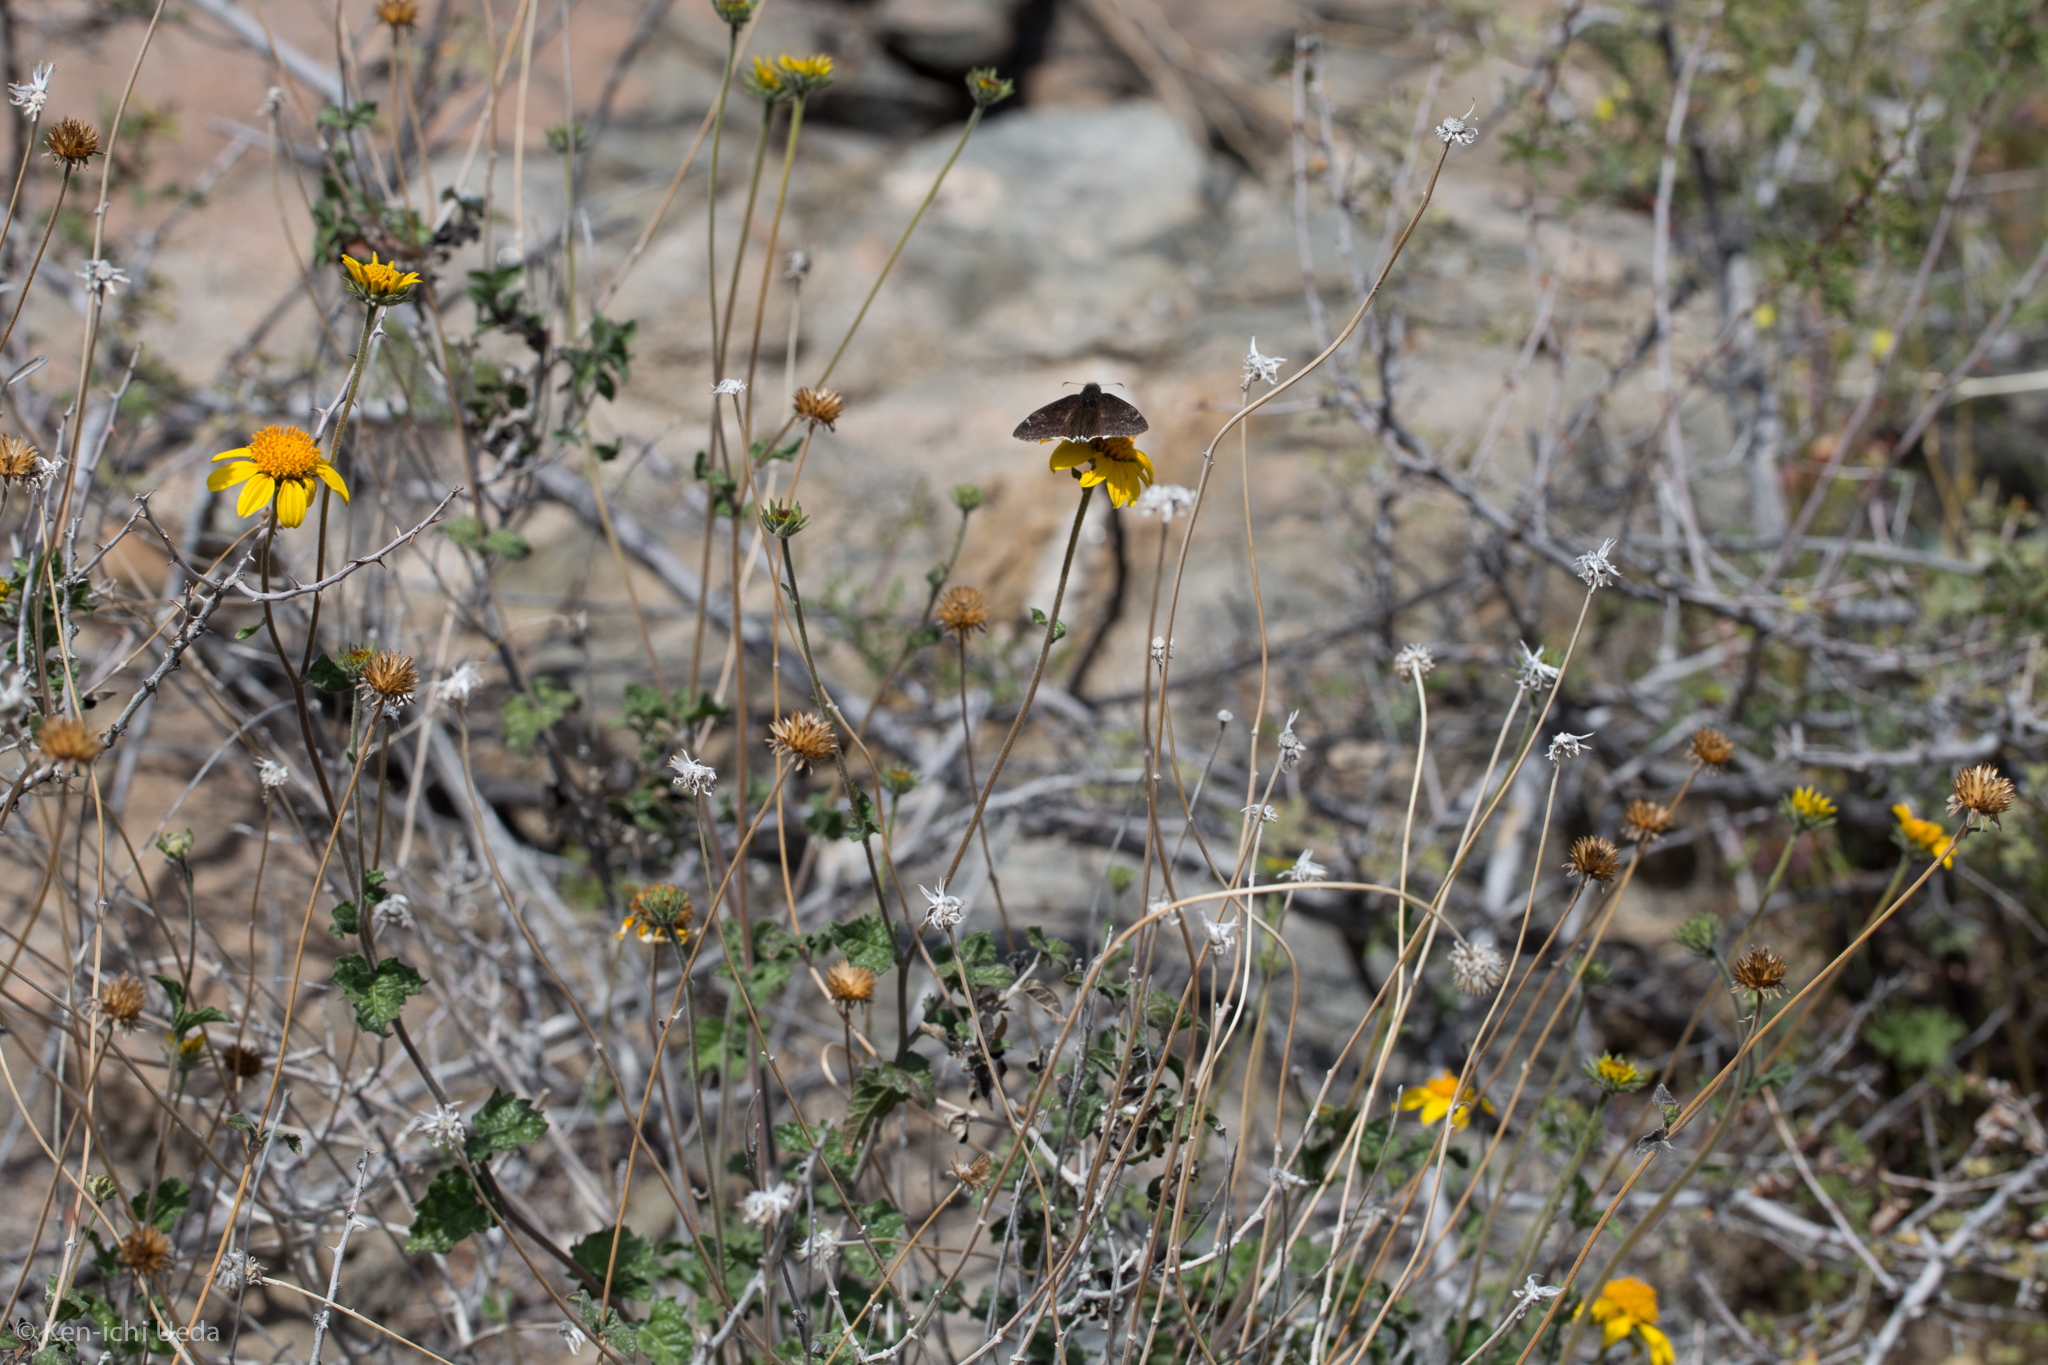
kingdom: Plantae
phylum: Tracheophyta
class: Magnoliopsida
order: Asterales
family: Asteraceae
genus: Bahiopsis
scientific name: Bahiopsis parishii
